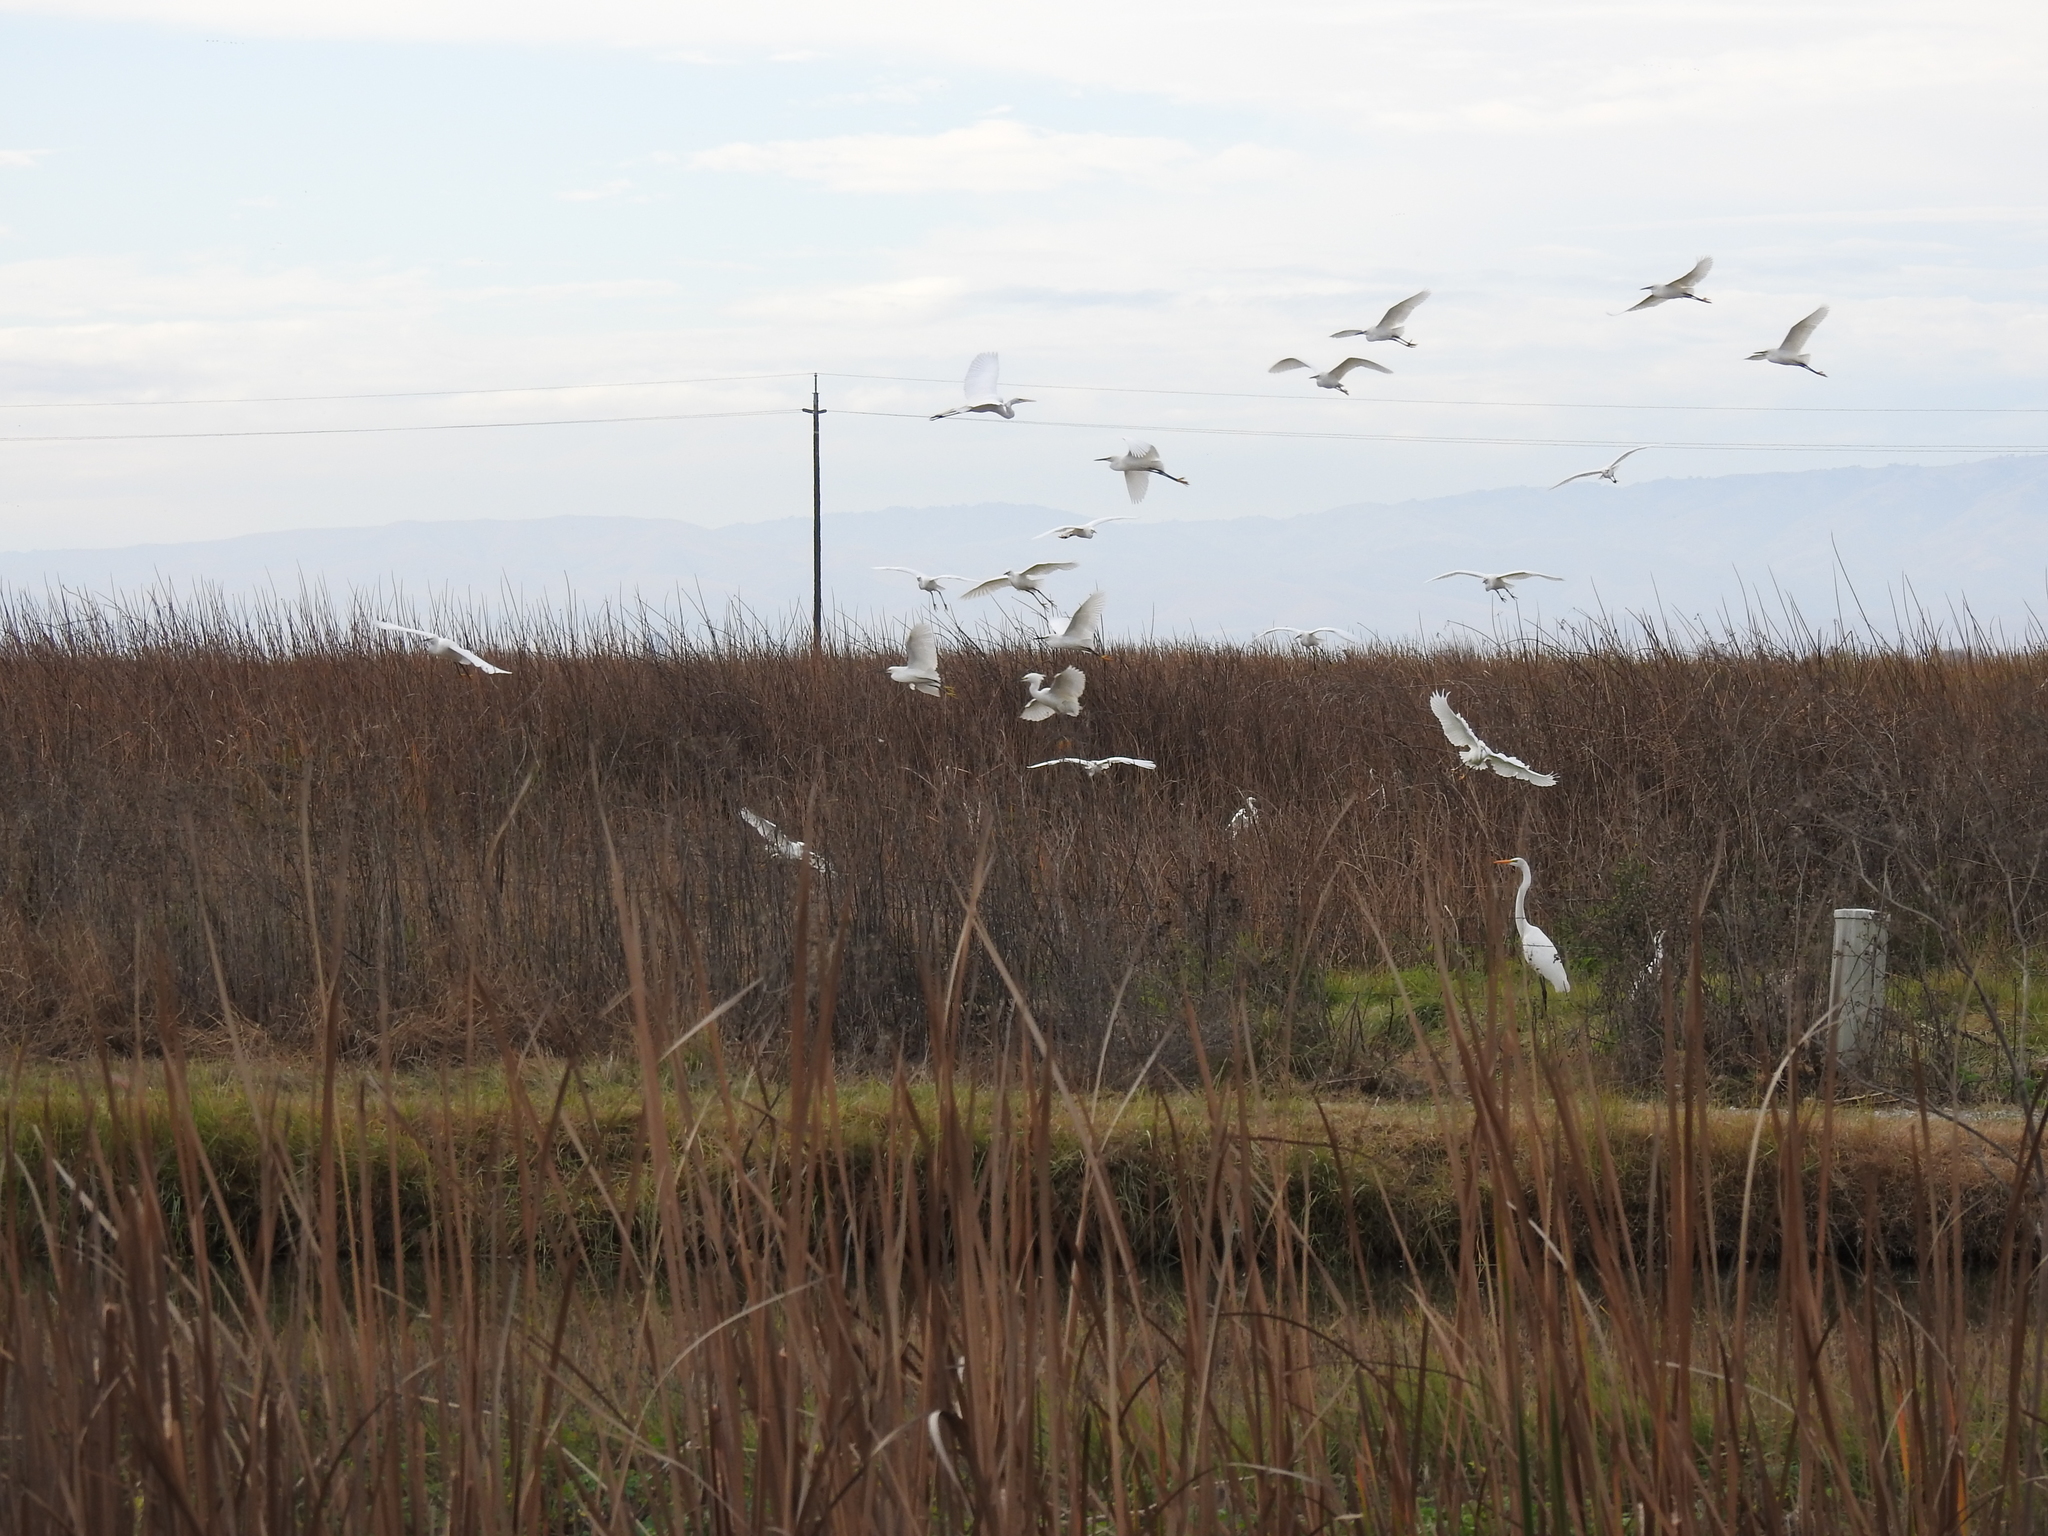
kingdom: Animalia
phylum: Chordata
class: Aves
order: Pelecaniformes
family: Ardeidae
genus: Egretta
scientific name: Egretta thula
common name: Snowy egret
